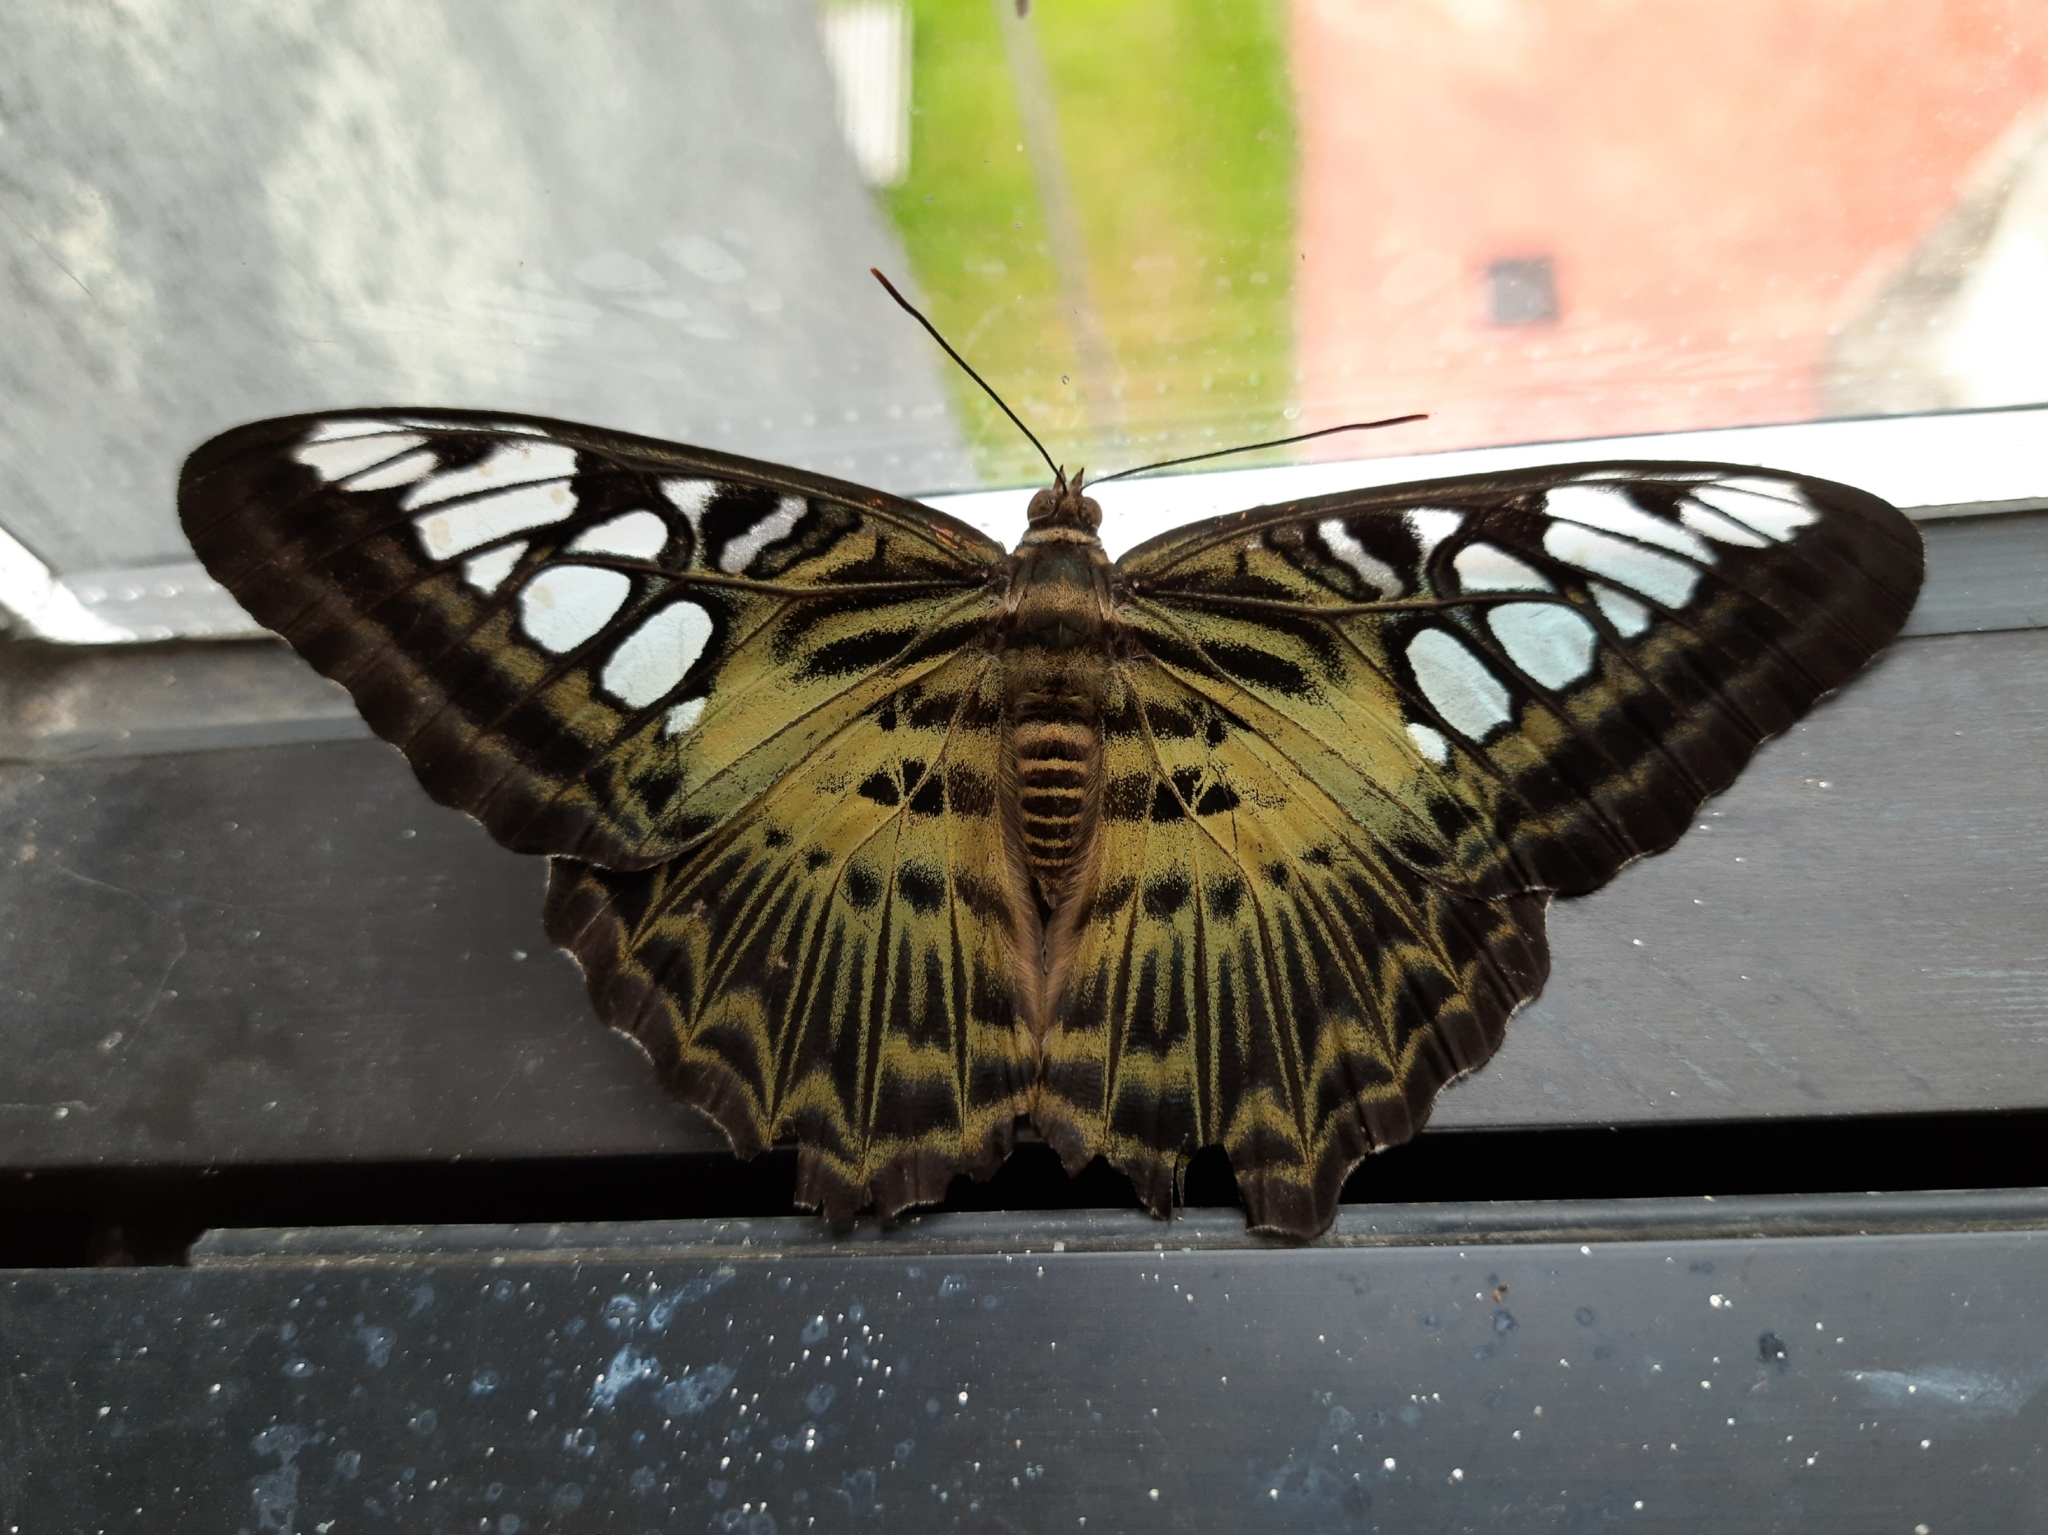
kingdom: Animalia
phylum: Arthropoda
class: Insecta
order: Lepidoptera
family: Nymphalidae
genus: Kallima
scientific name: Kallima sylvia
